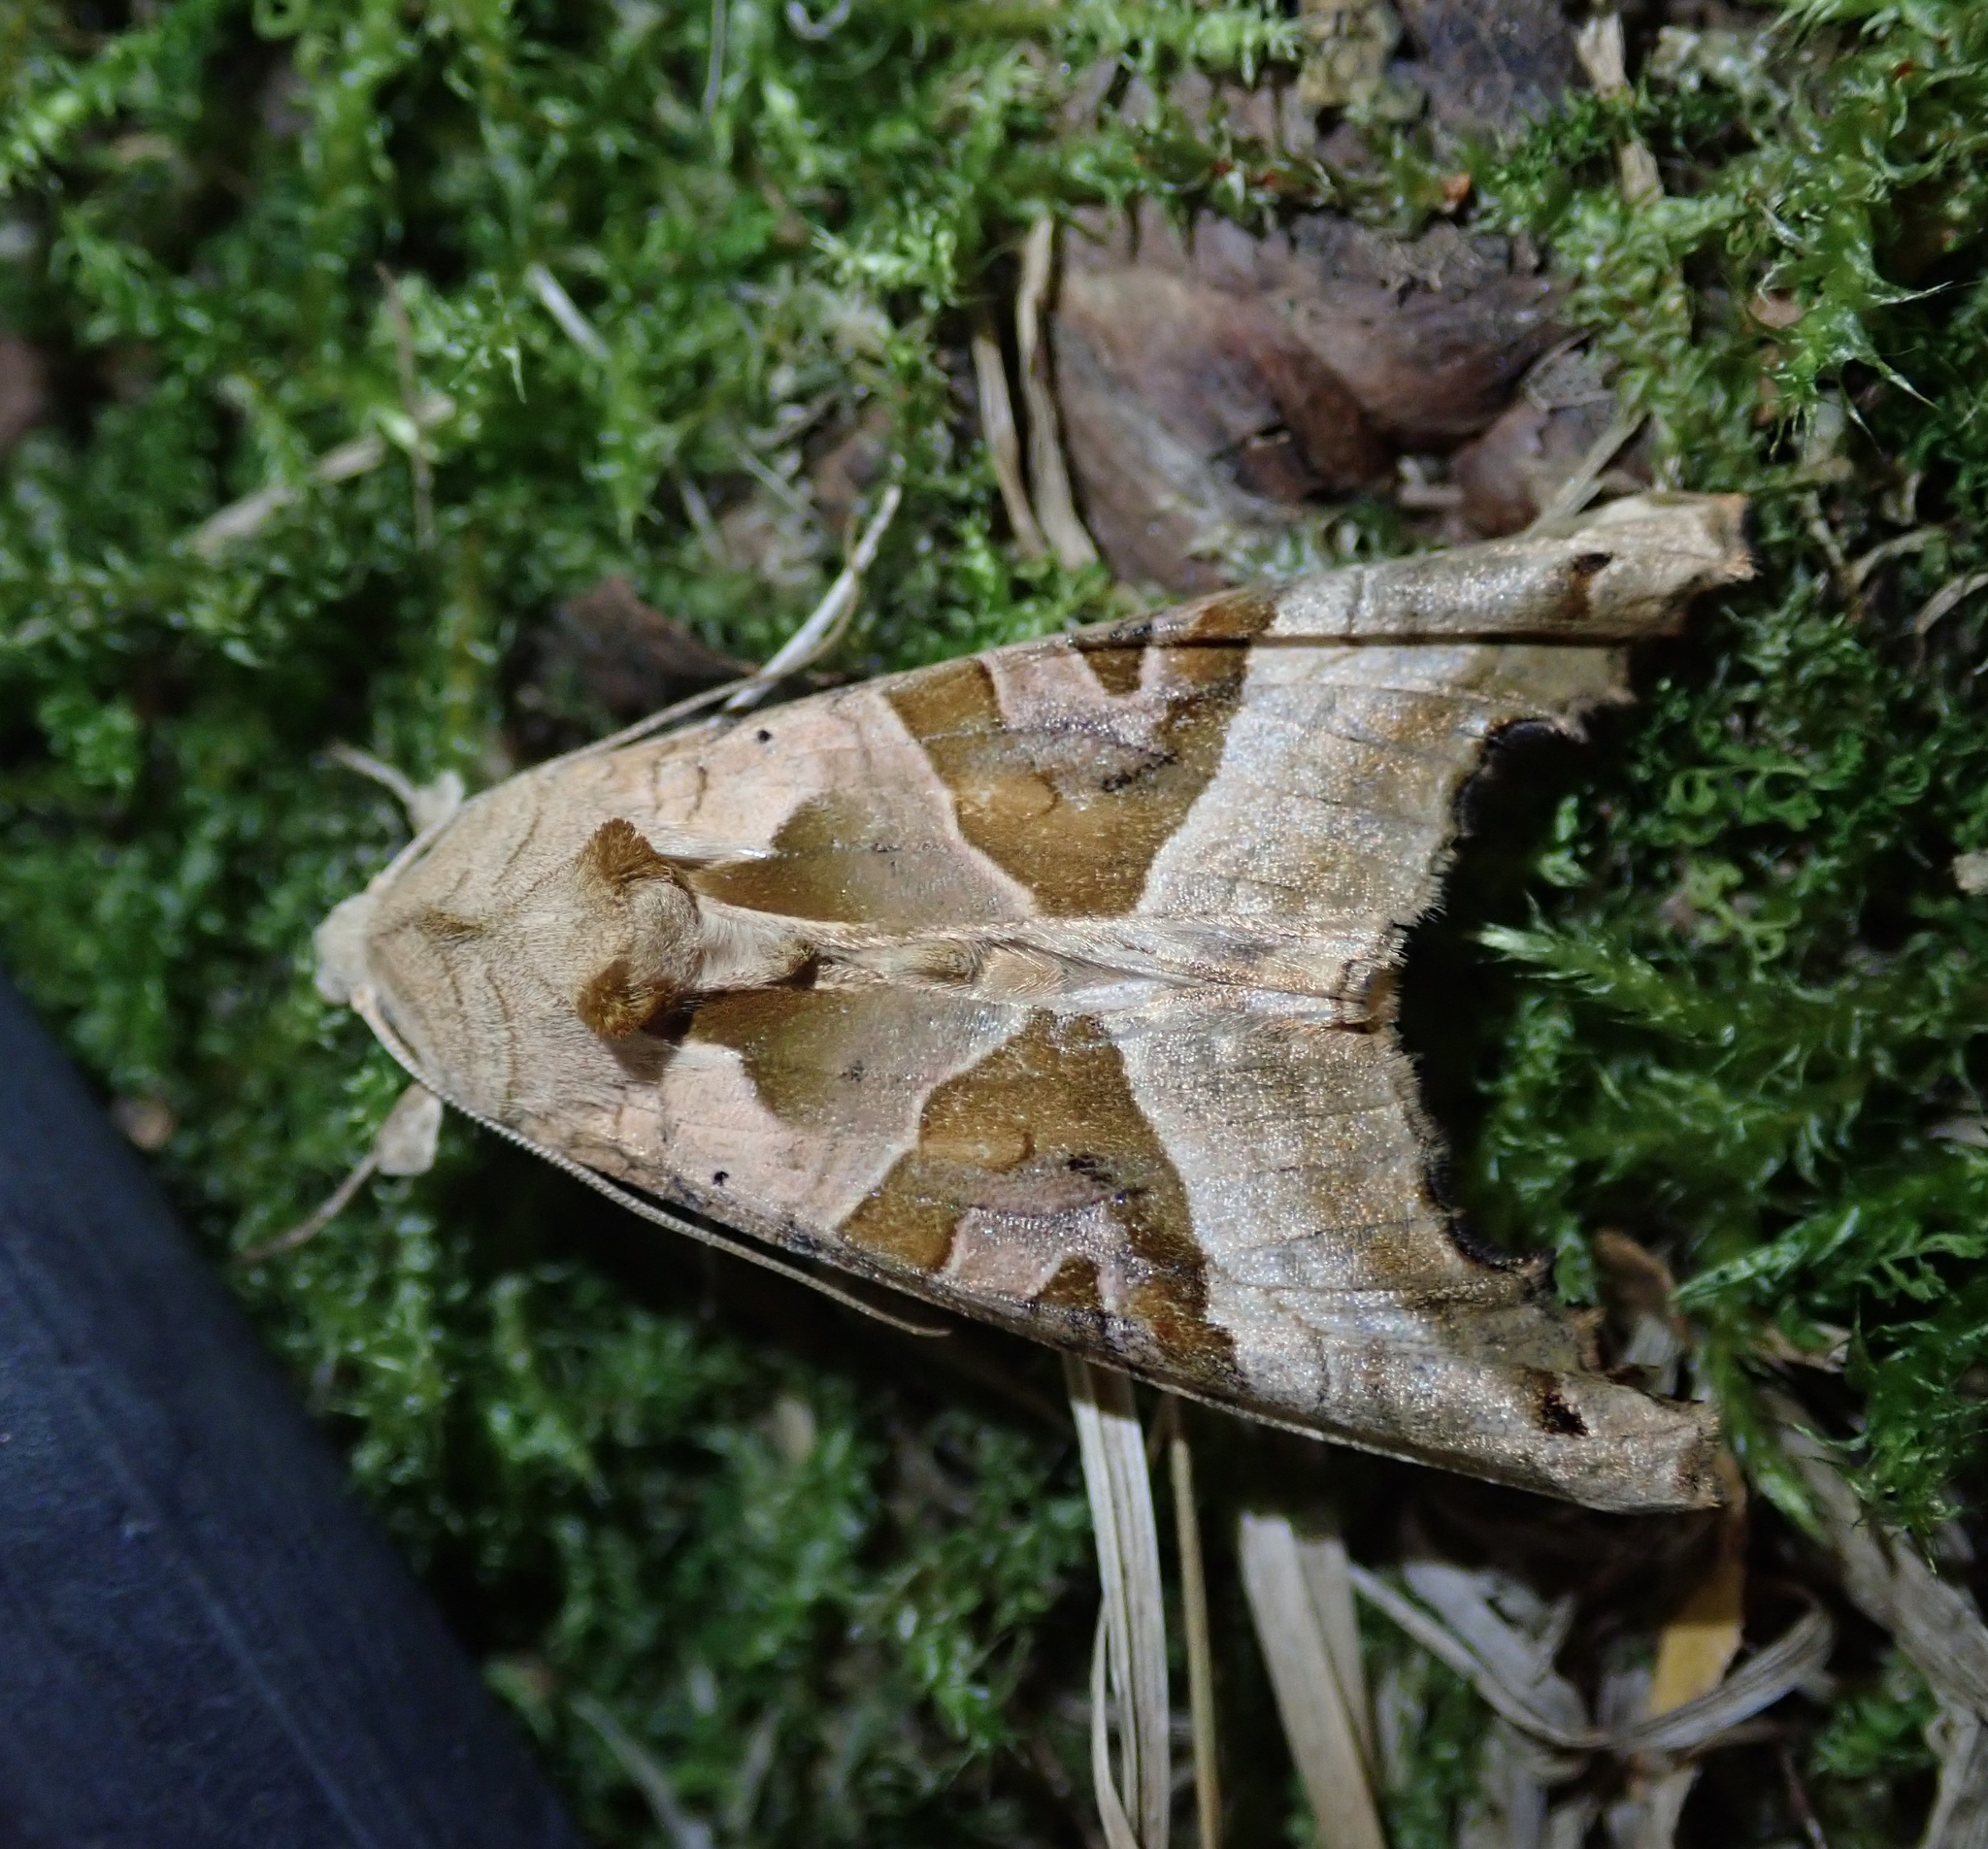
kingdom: Animalia
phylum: Arthropoda
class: Insecta
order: Lepidoptera
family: Noctuidae
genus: Phlogophora
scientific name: Phlogophora meticulosa
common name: Angle shades
